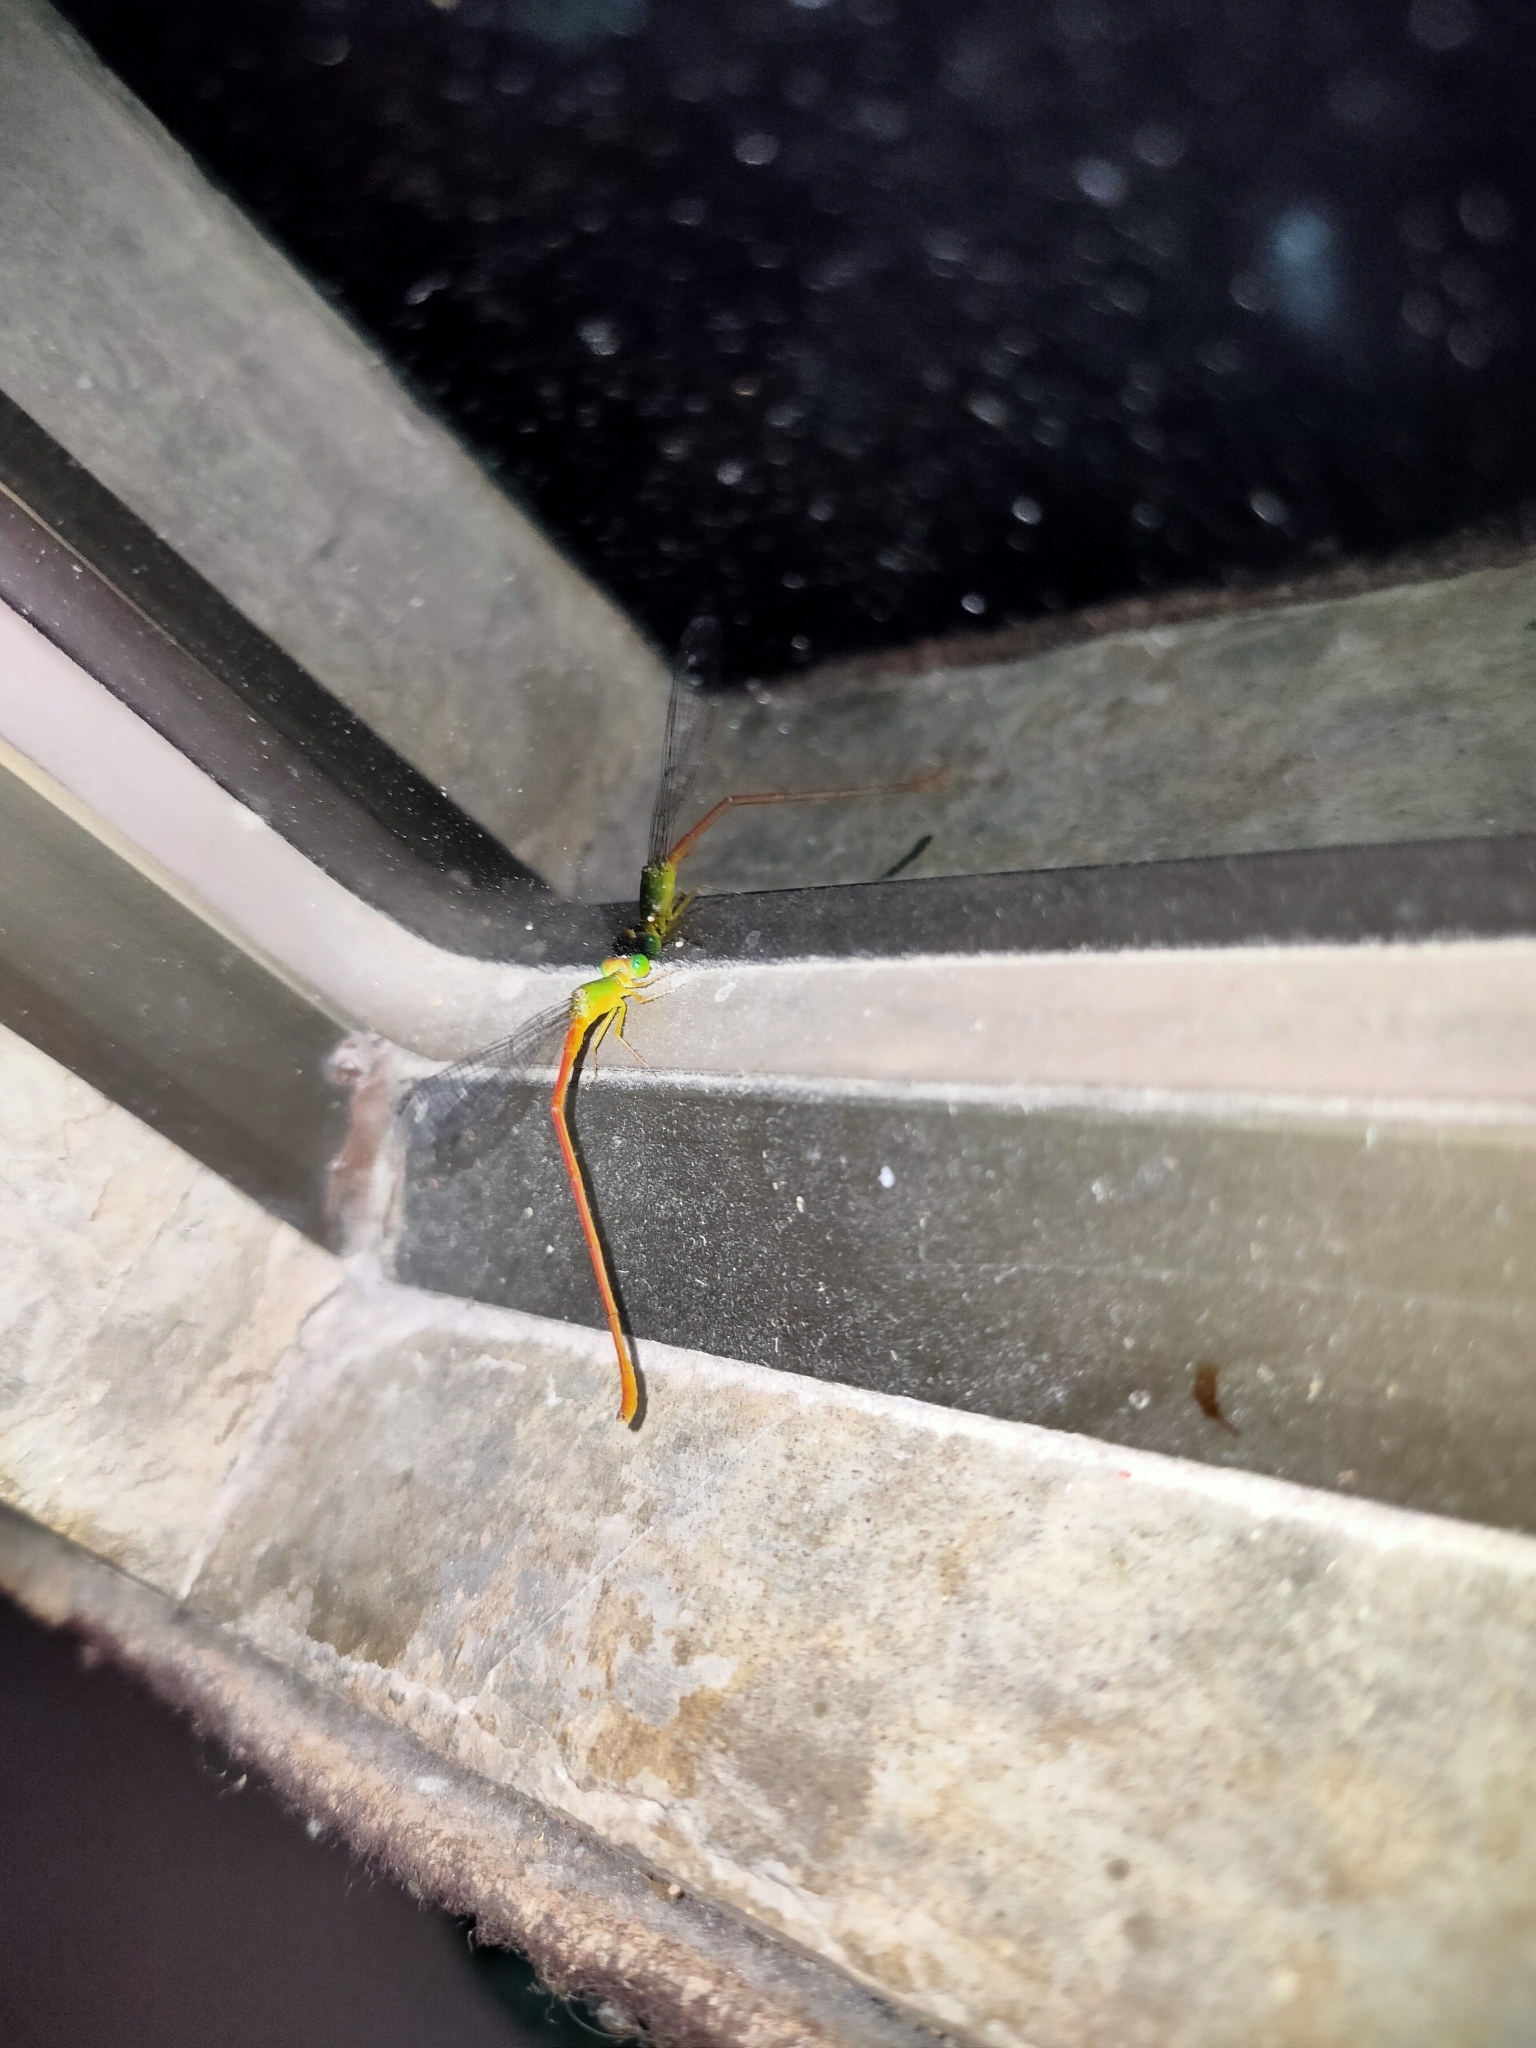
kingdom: Animalia
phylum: Arthropoda
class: Insecta
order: Odonata
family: Coenagrionidae
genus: Ceriagrion
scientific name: Ceriagrion auranticum
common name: Orange-tailed sprite
